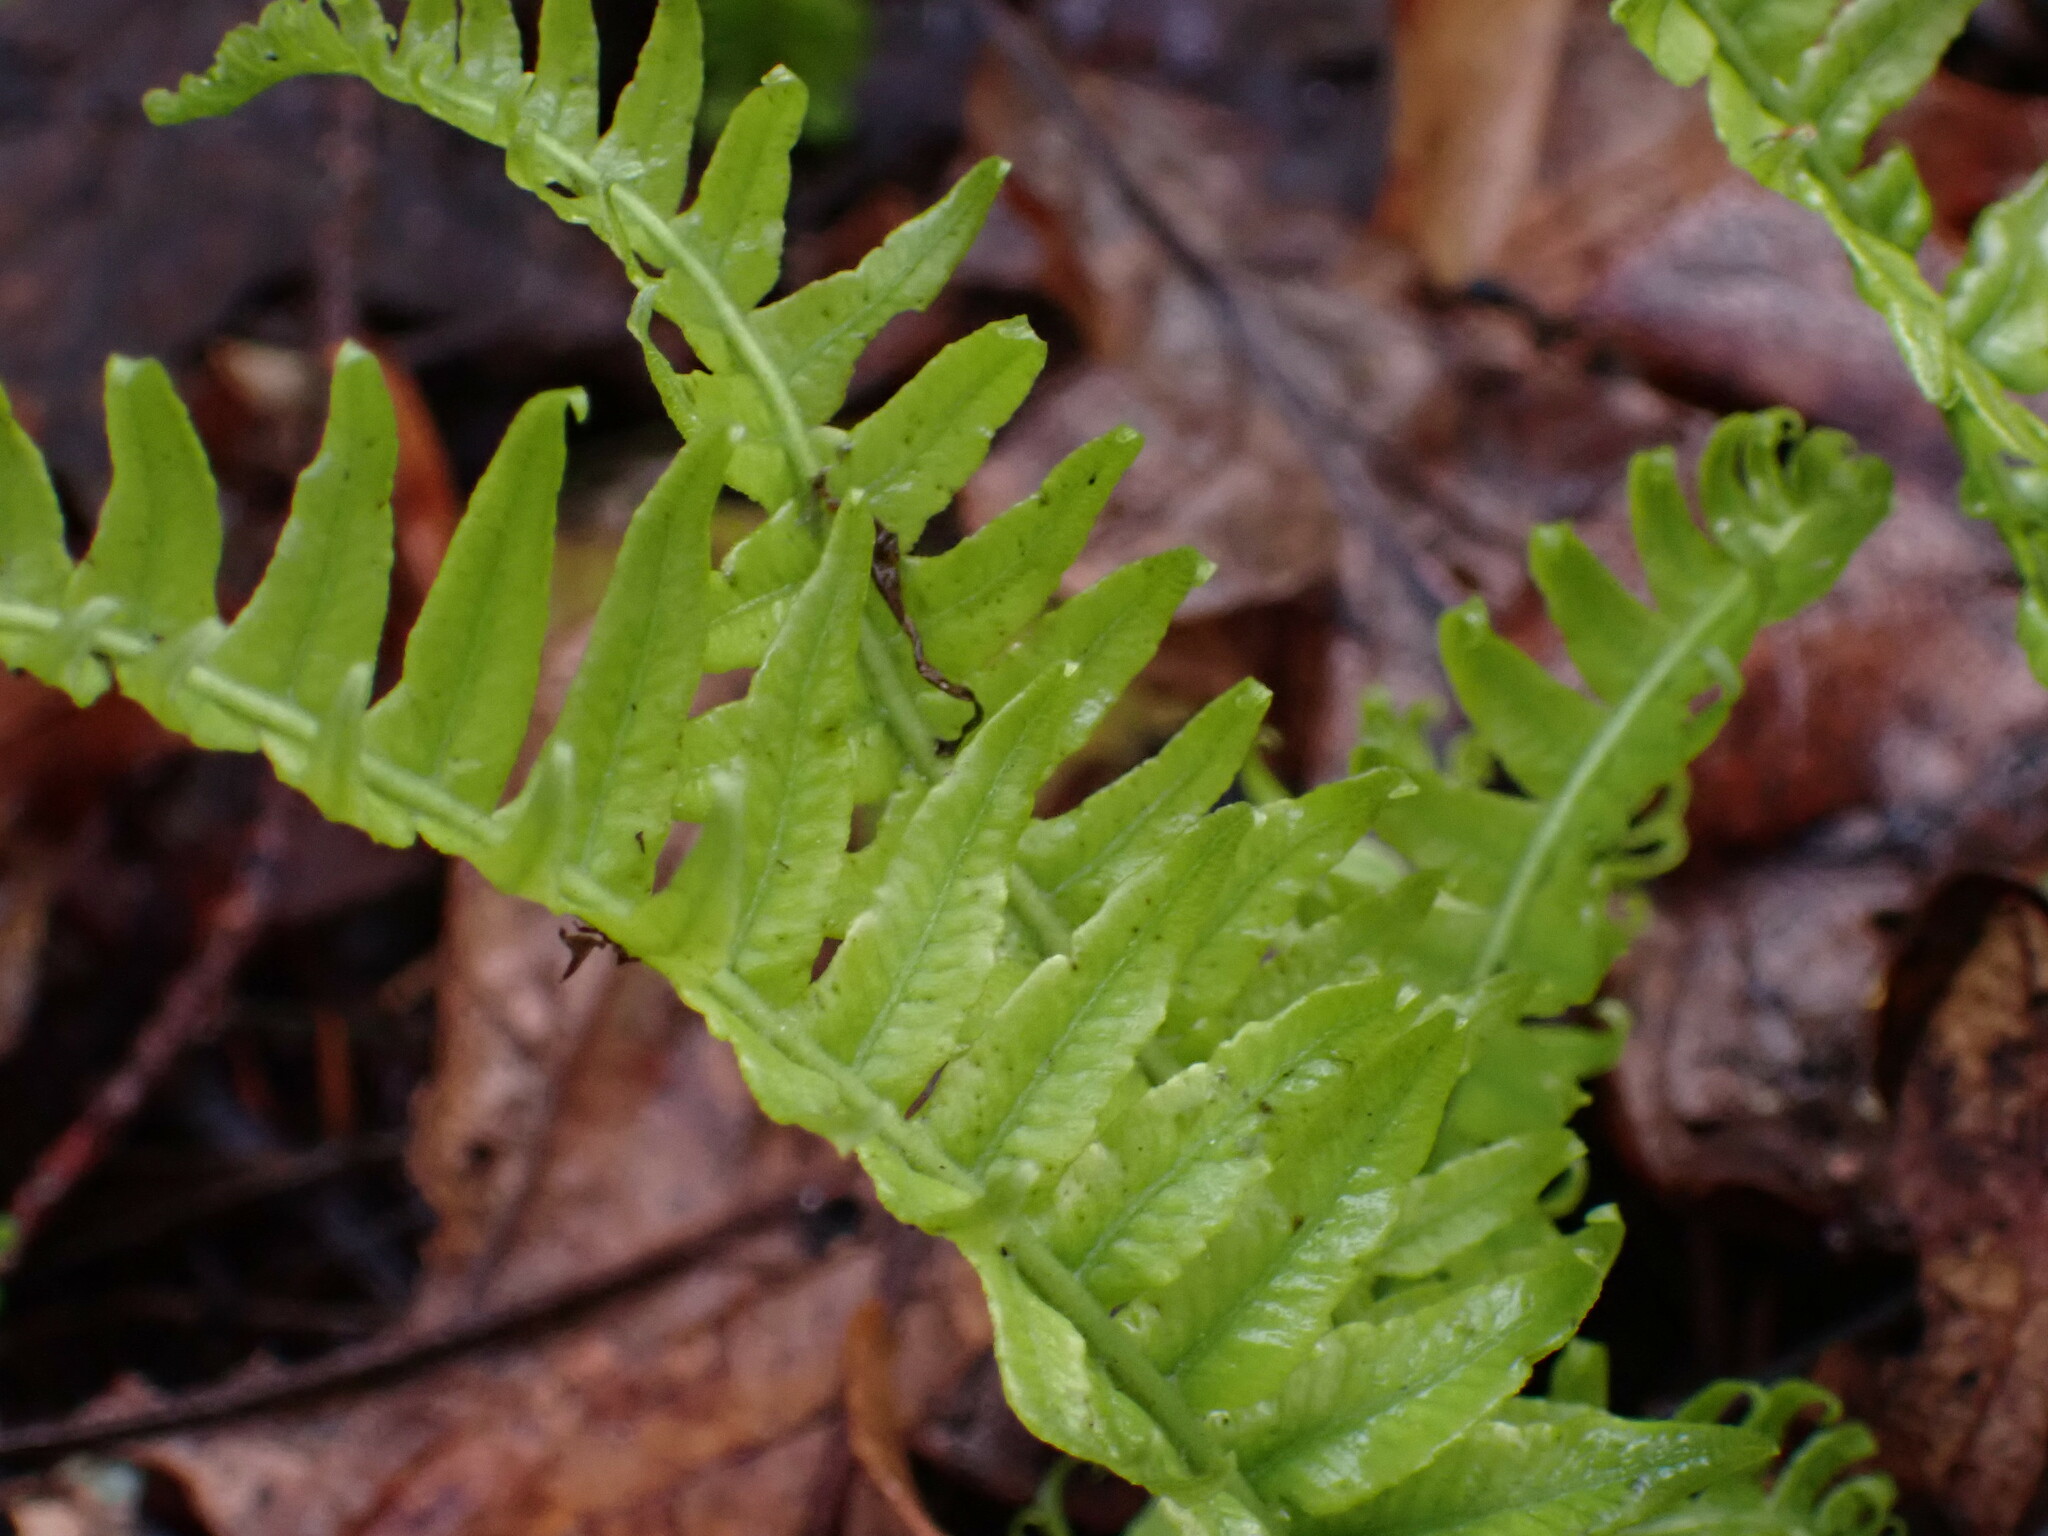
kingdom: Plantae
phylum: Tracheophyta
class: Polypodiopsida
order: Polypodiales
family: Polypodiaceae
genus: Polypodium
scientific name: Polypodium glycyrrhiza
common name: Licorice fern
